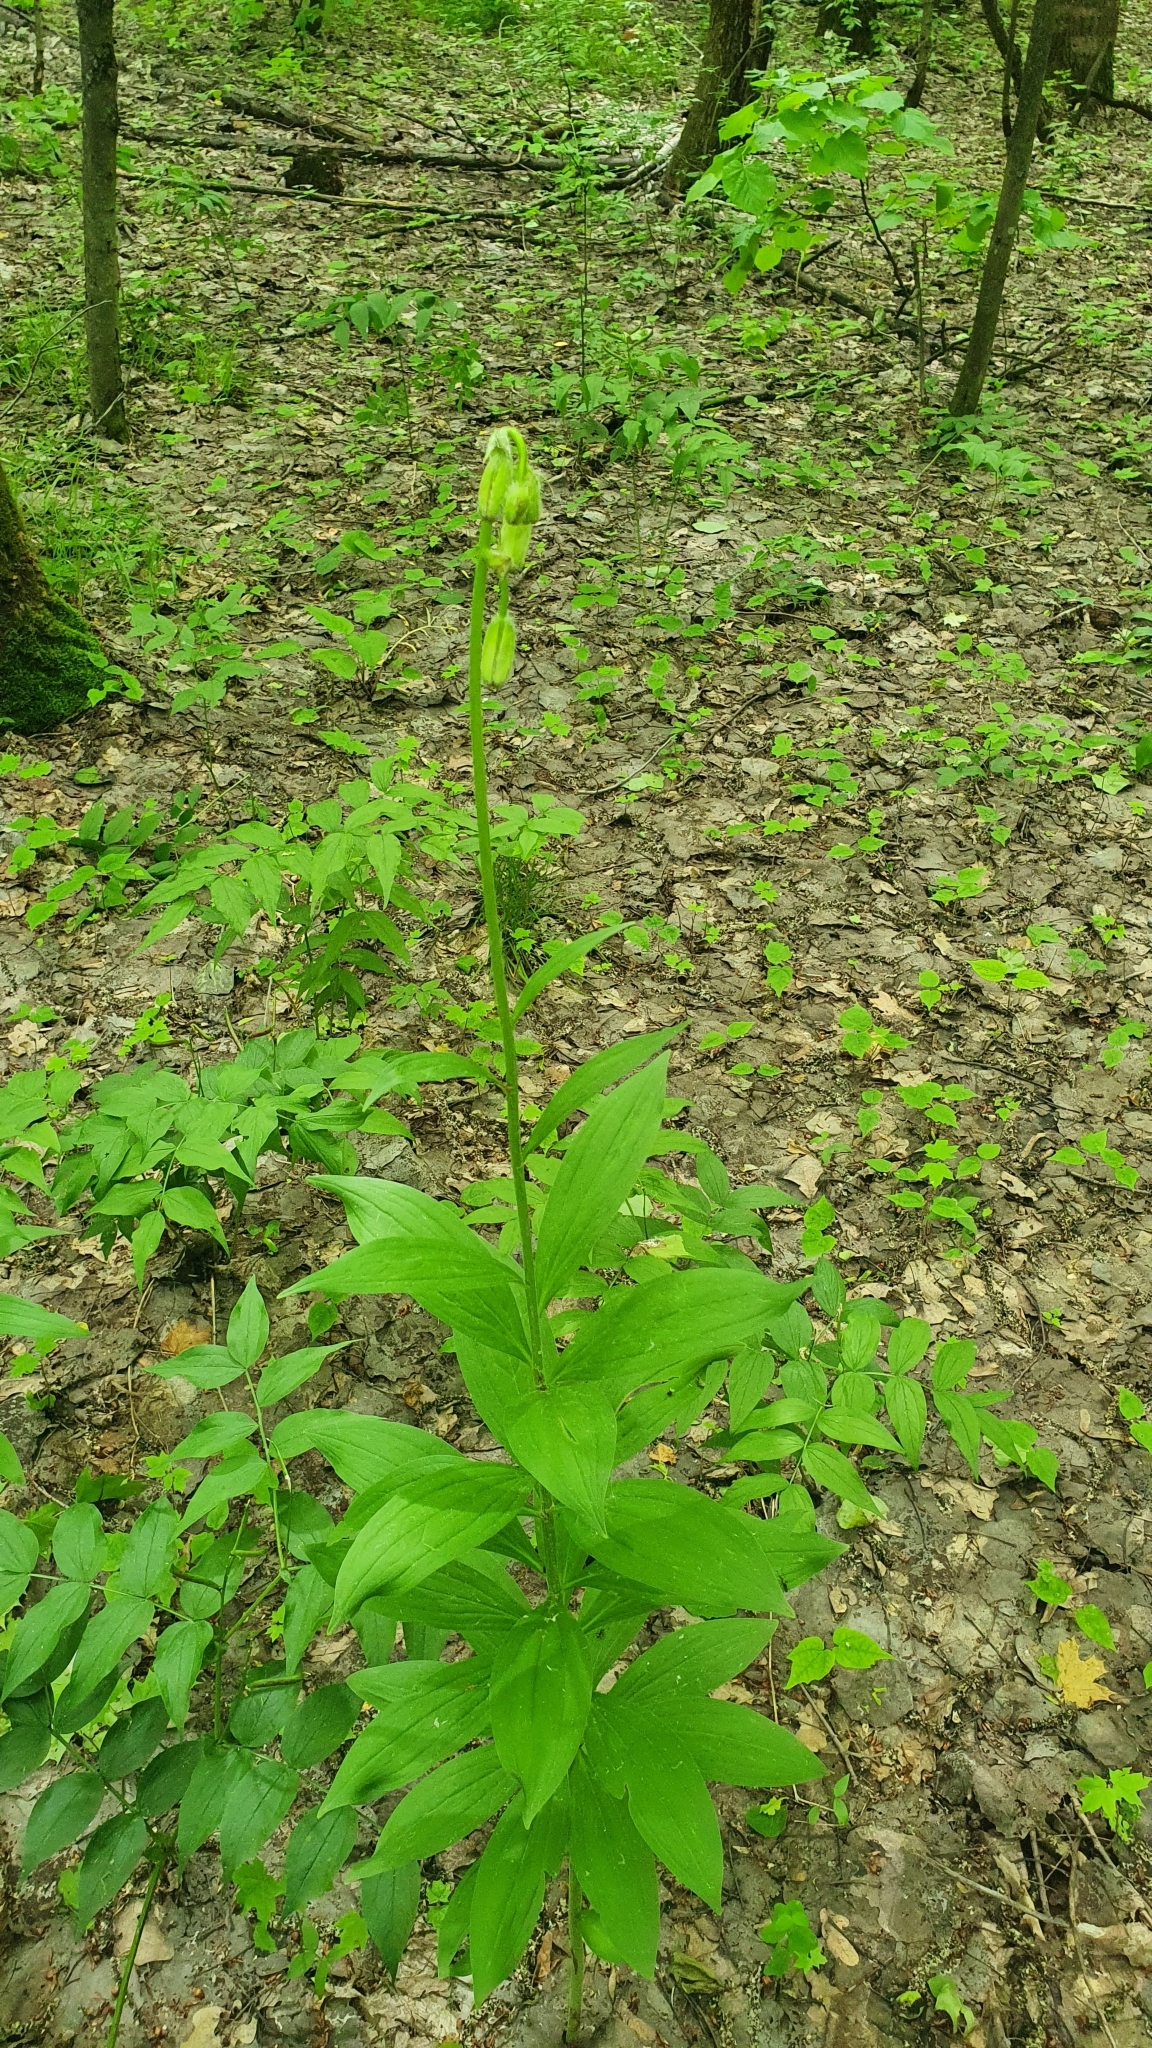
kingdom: Plantae
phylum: Tracheophyta
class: Liliopsida
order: Liliales
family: Liliaceae
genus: Lilium
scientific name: Lilium martagon
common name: Martagon lily
